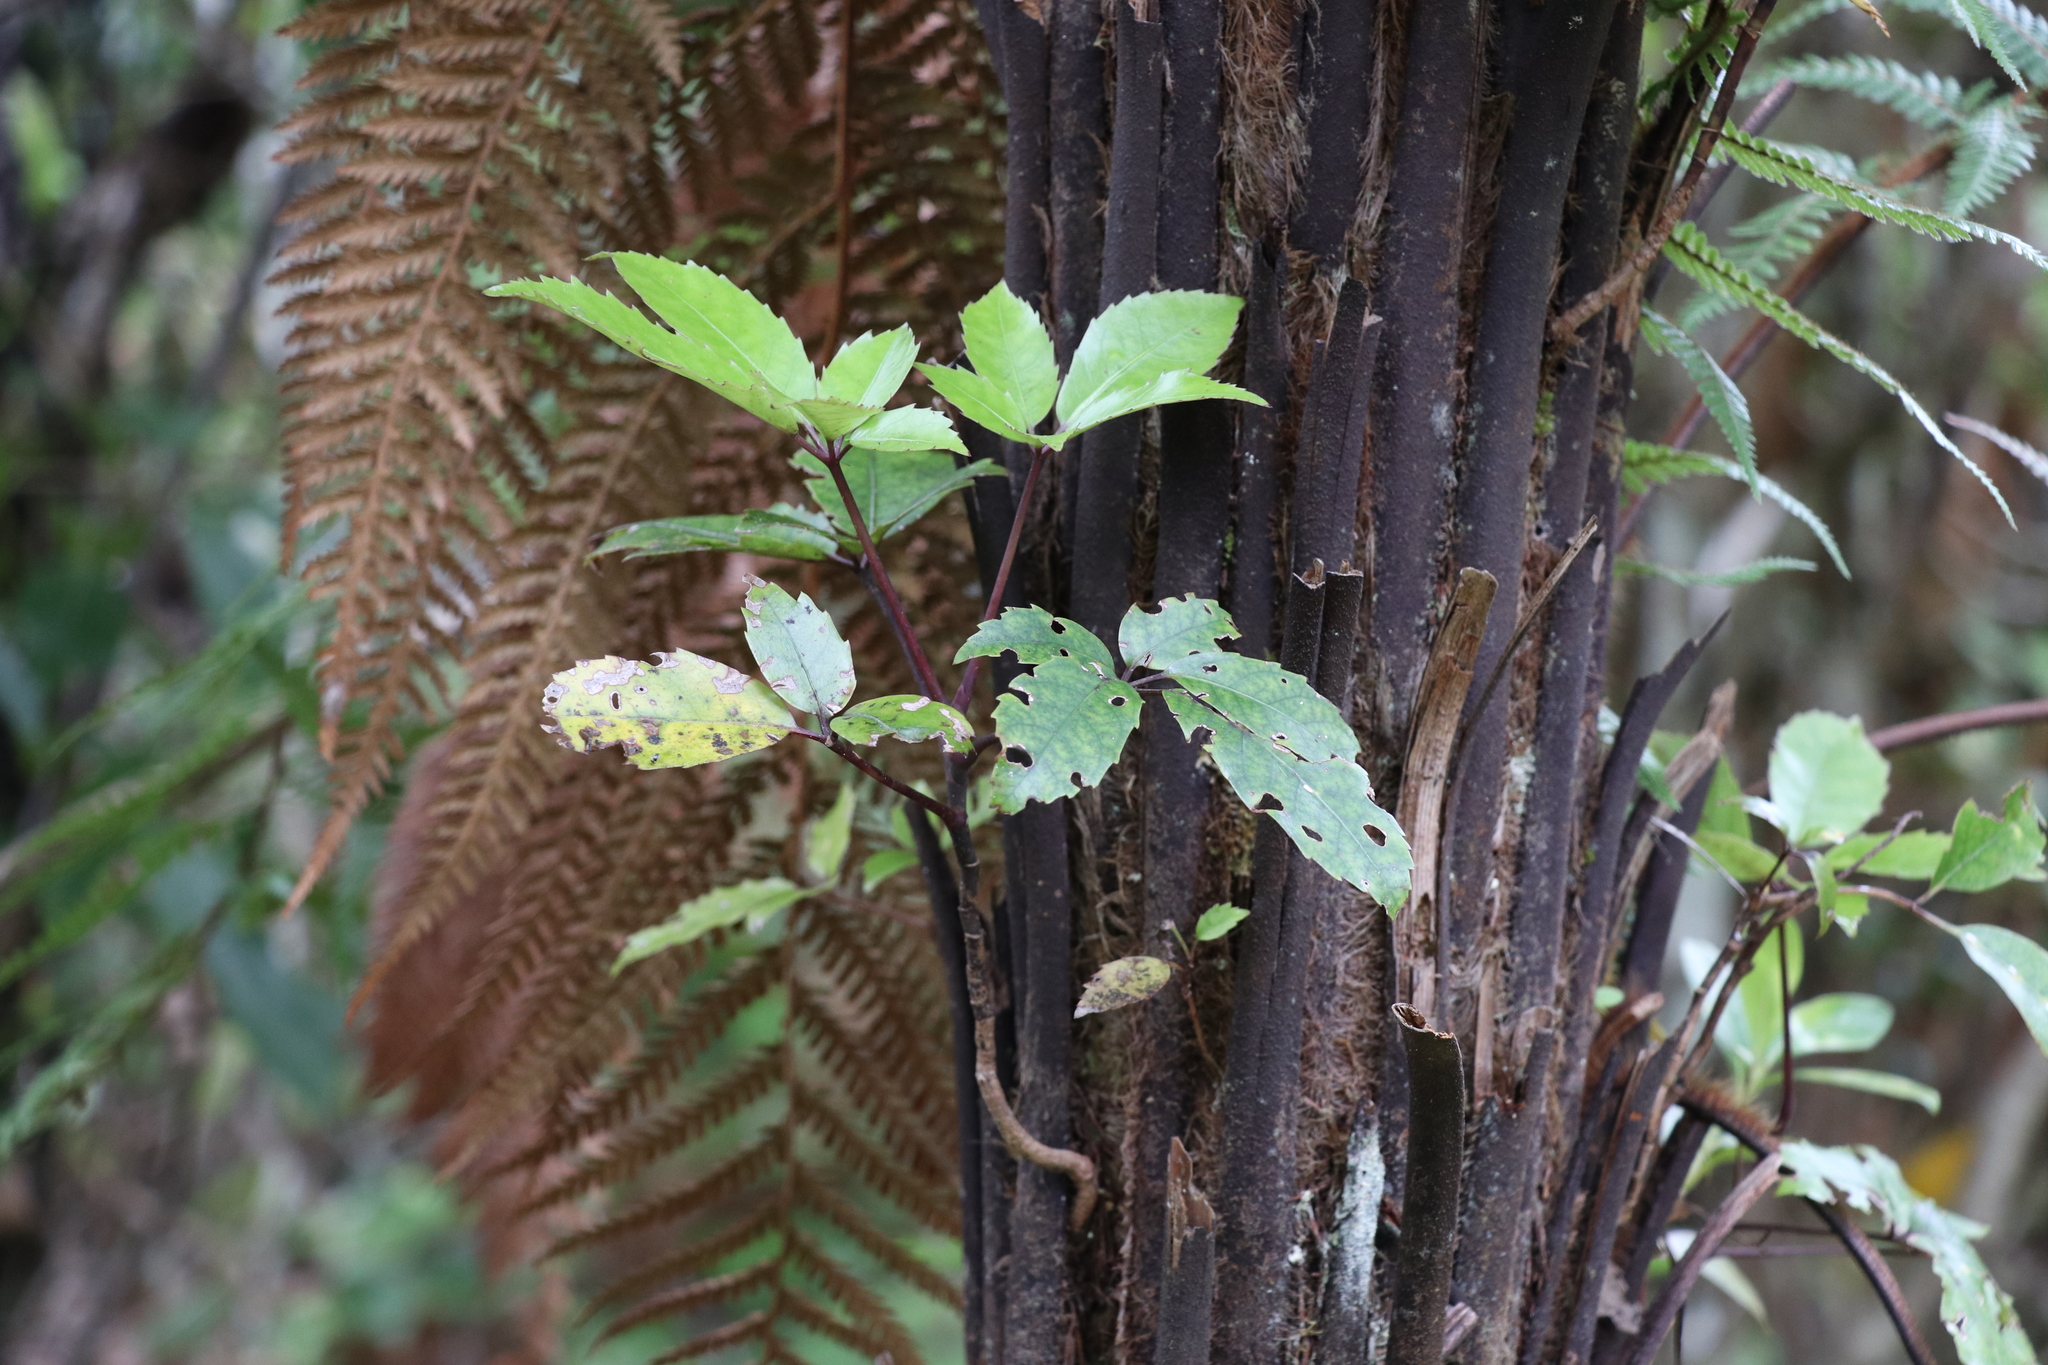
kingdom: Plantae
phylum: Tracheophyta
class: Magnoliopsida
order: Apiales
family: Araliaceae
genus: Neopanax
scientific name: Neopanax arboreus
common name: Five-fingers
